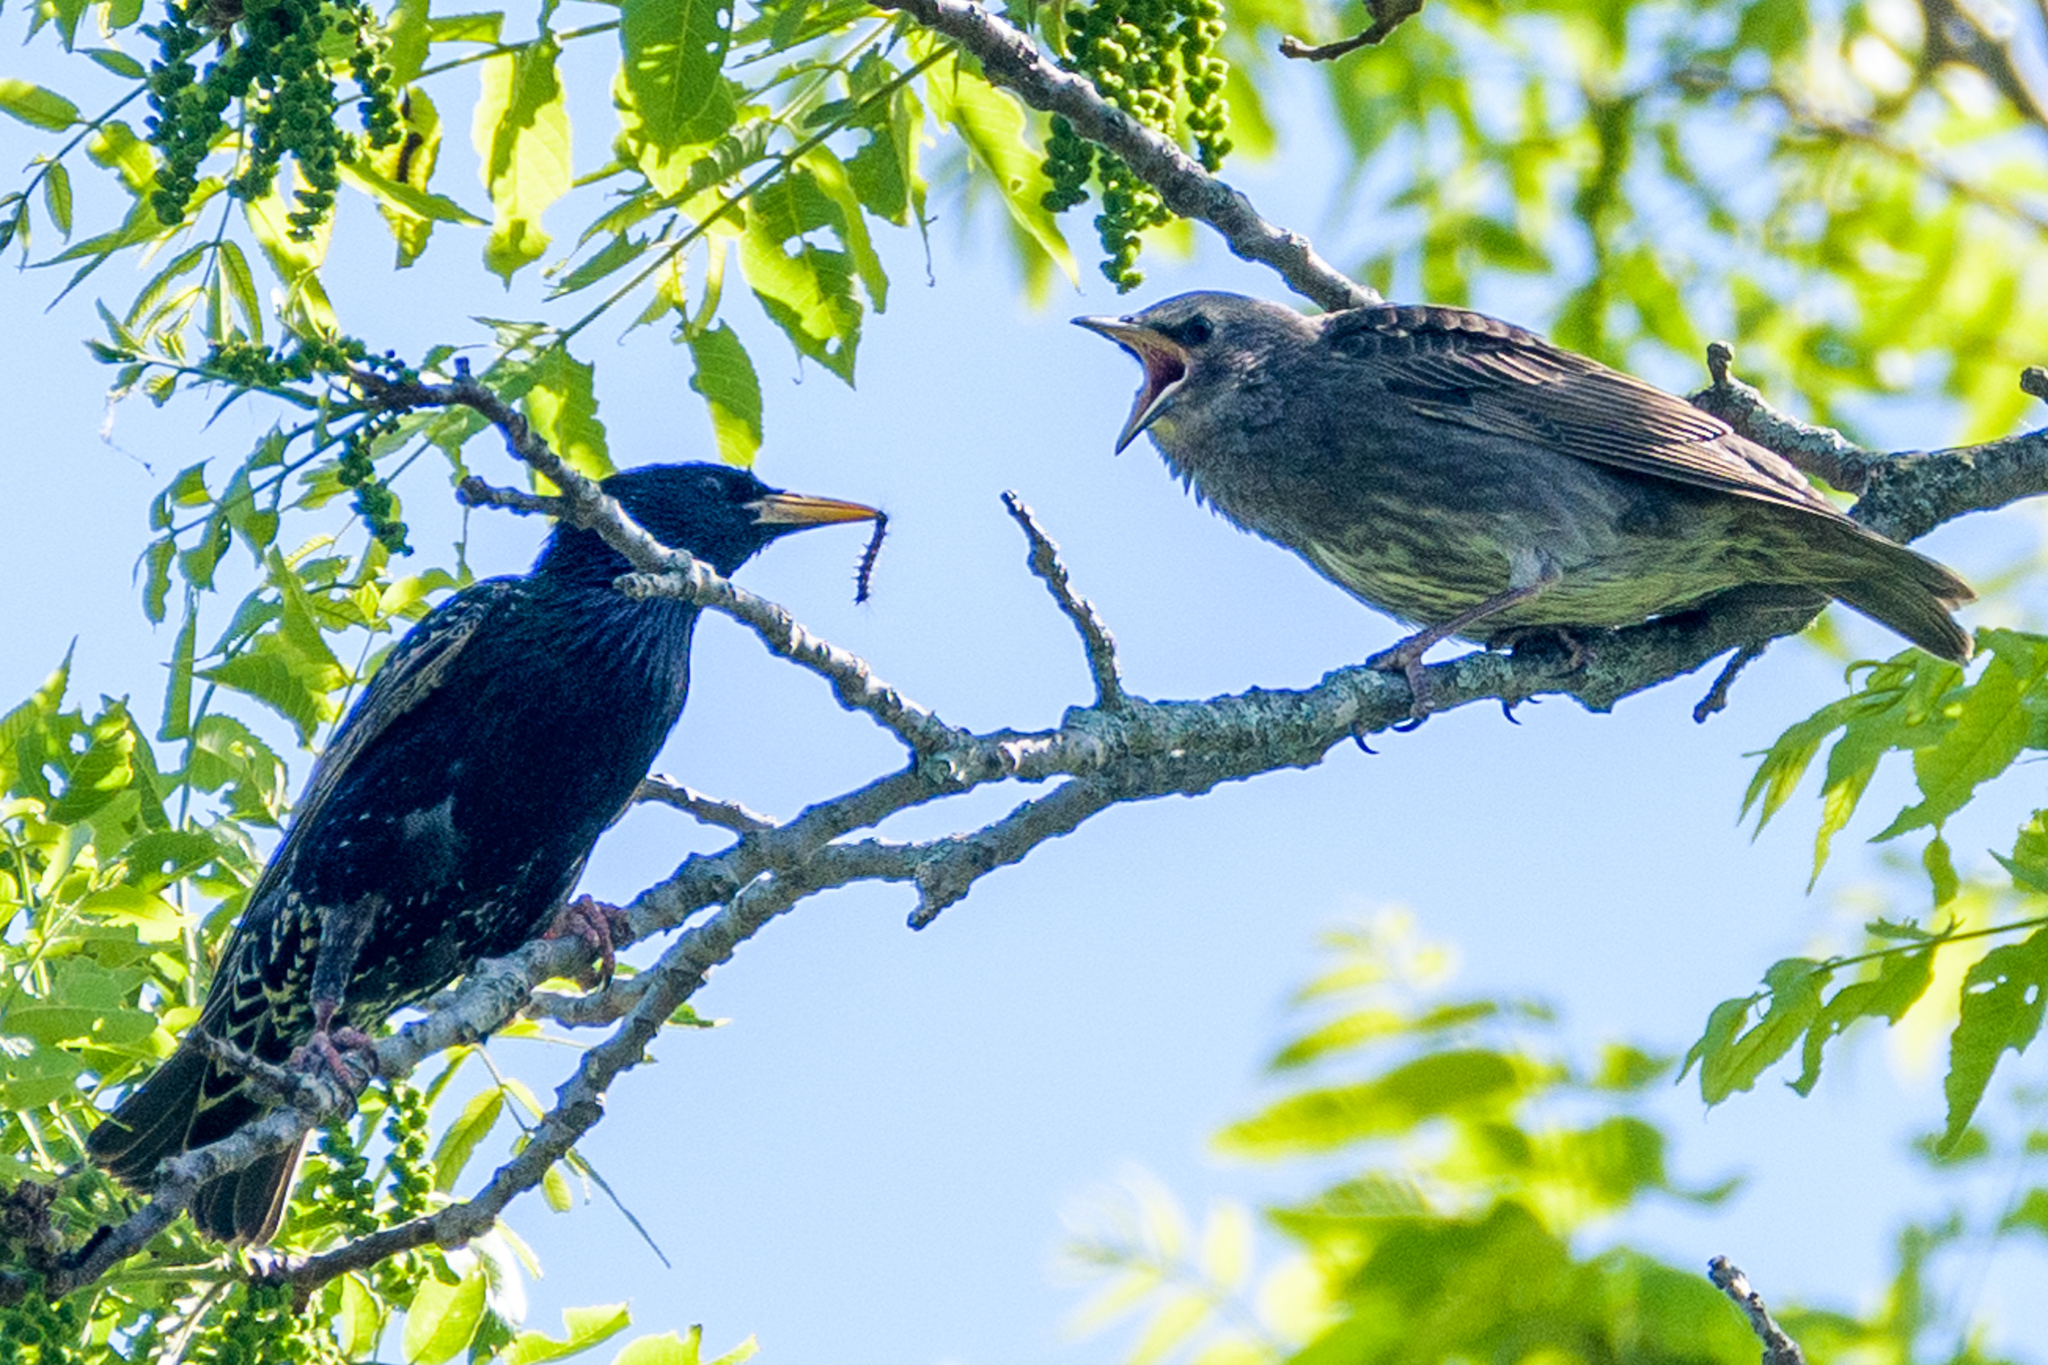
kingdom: Animalia
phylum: Chordata
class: Aves
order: Passeriformes
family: Sturnidae
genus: Sturnus
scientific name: Sturnus vulgaris
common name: Common starling
